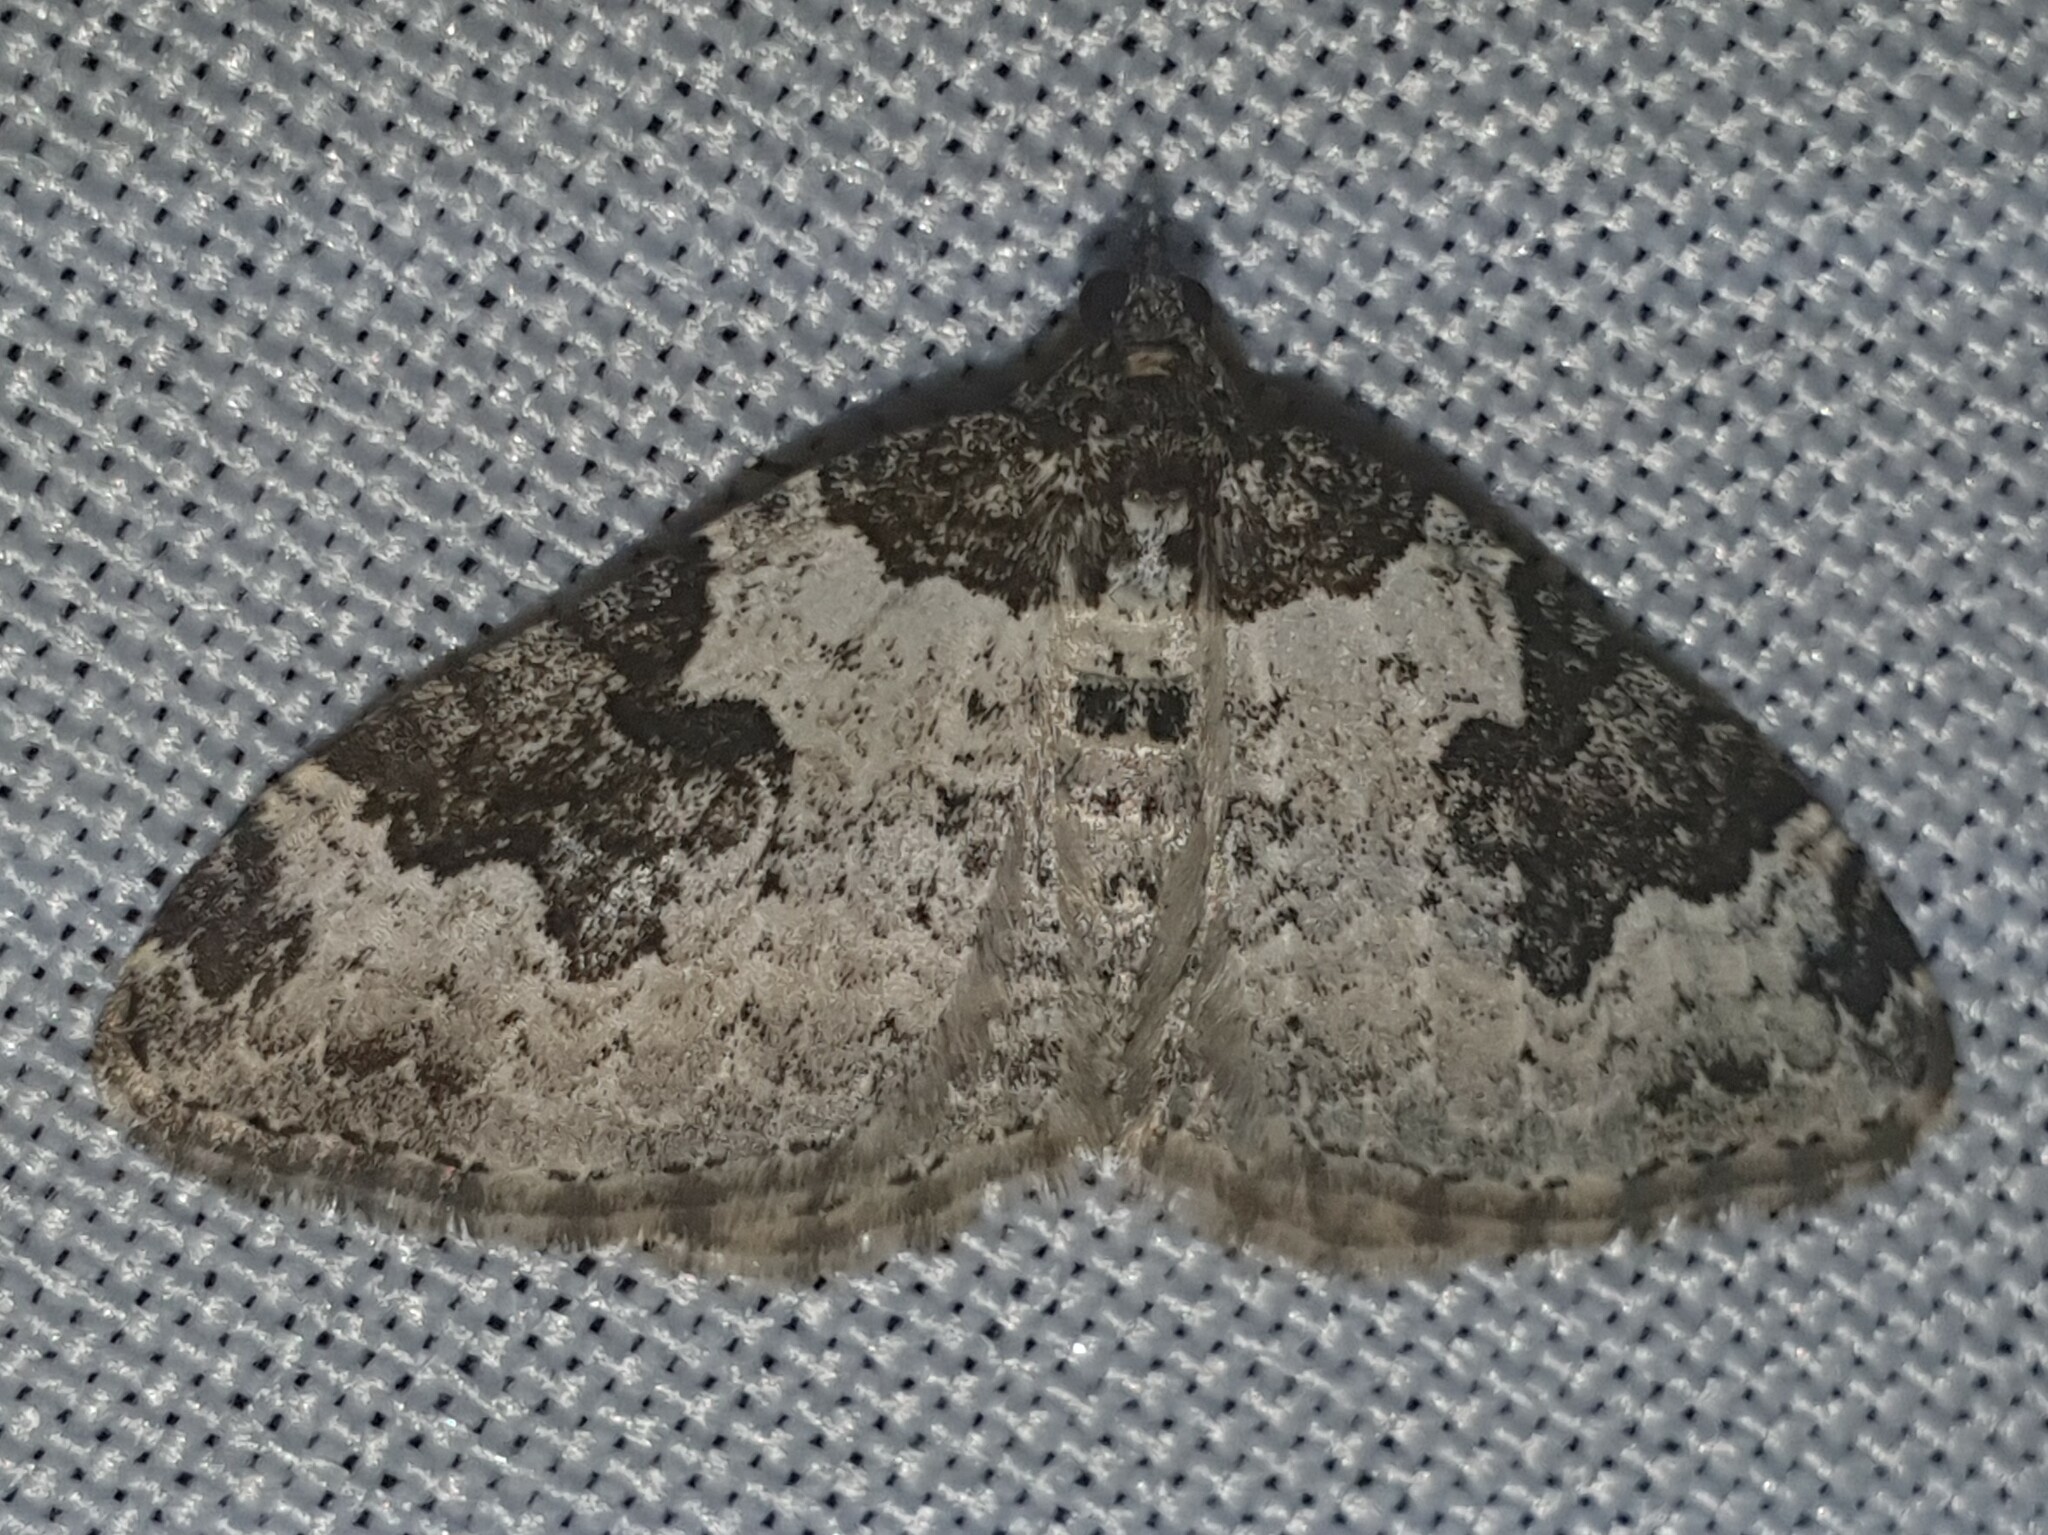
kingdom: Animalia
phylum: Arthropoda
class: Insecta
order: Lepidoptera
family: Geometridae
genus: Xanthorhoe
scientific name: Xanthorhoe fluctuata
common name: Garden carpet
